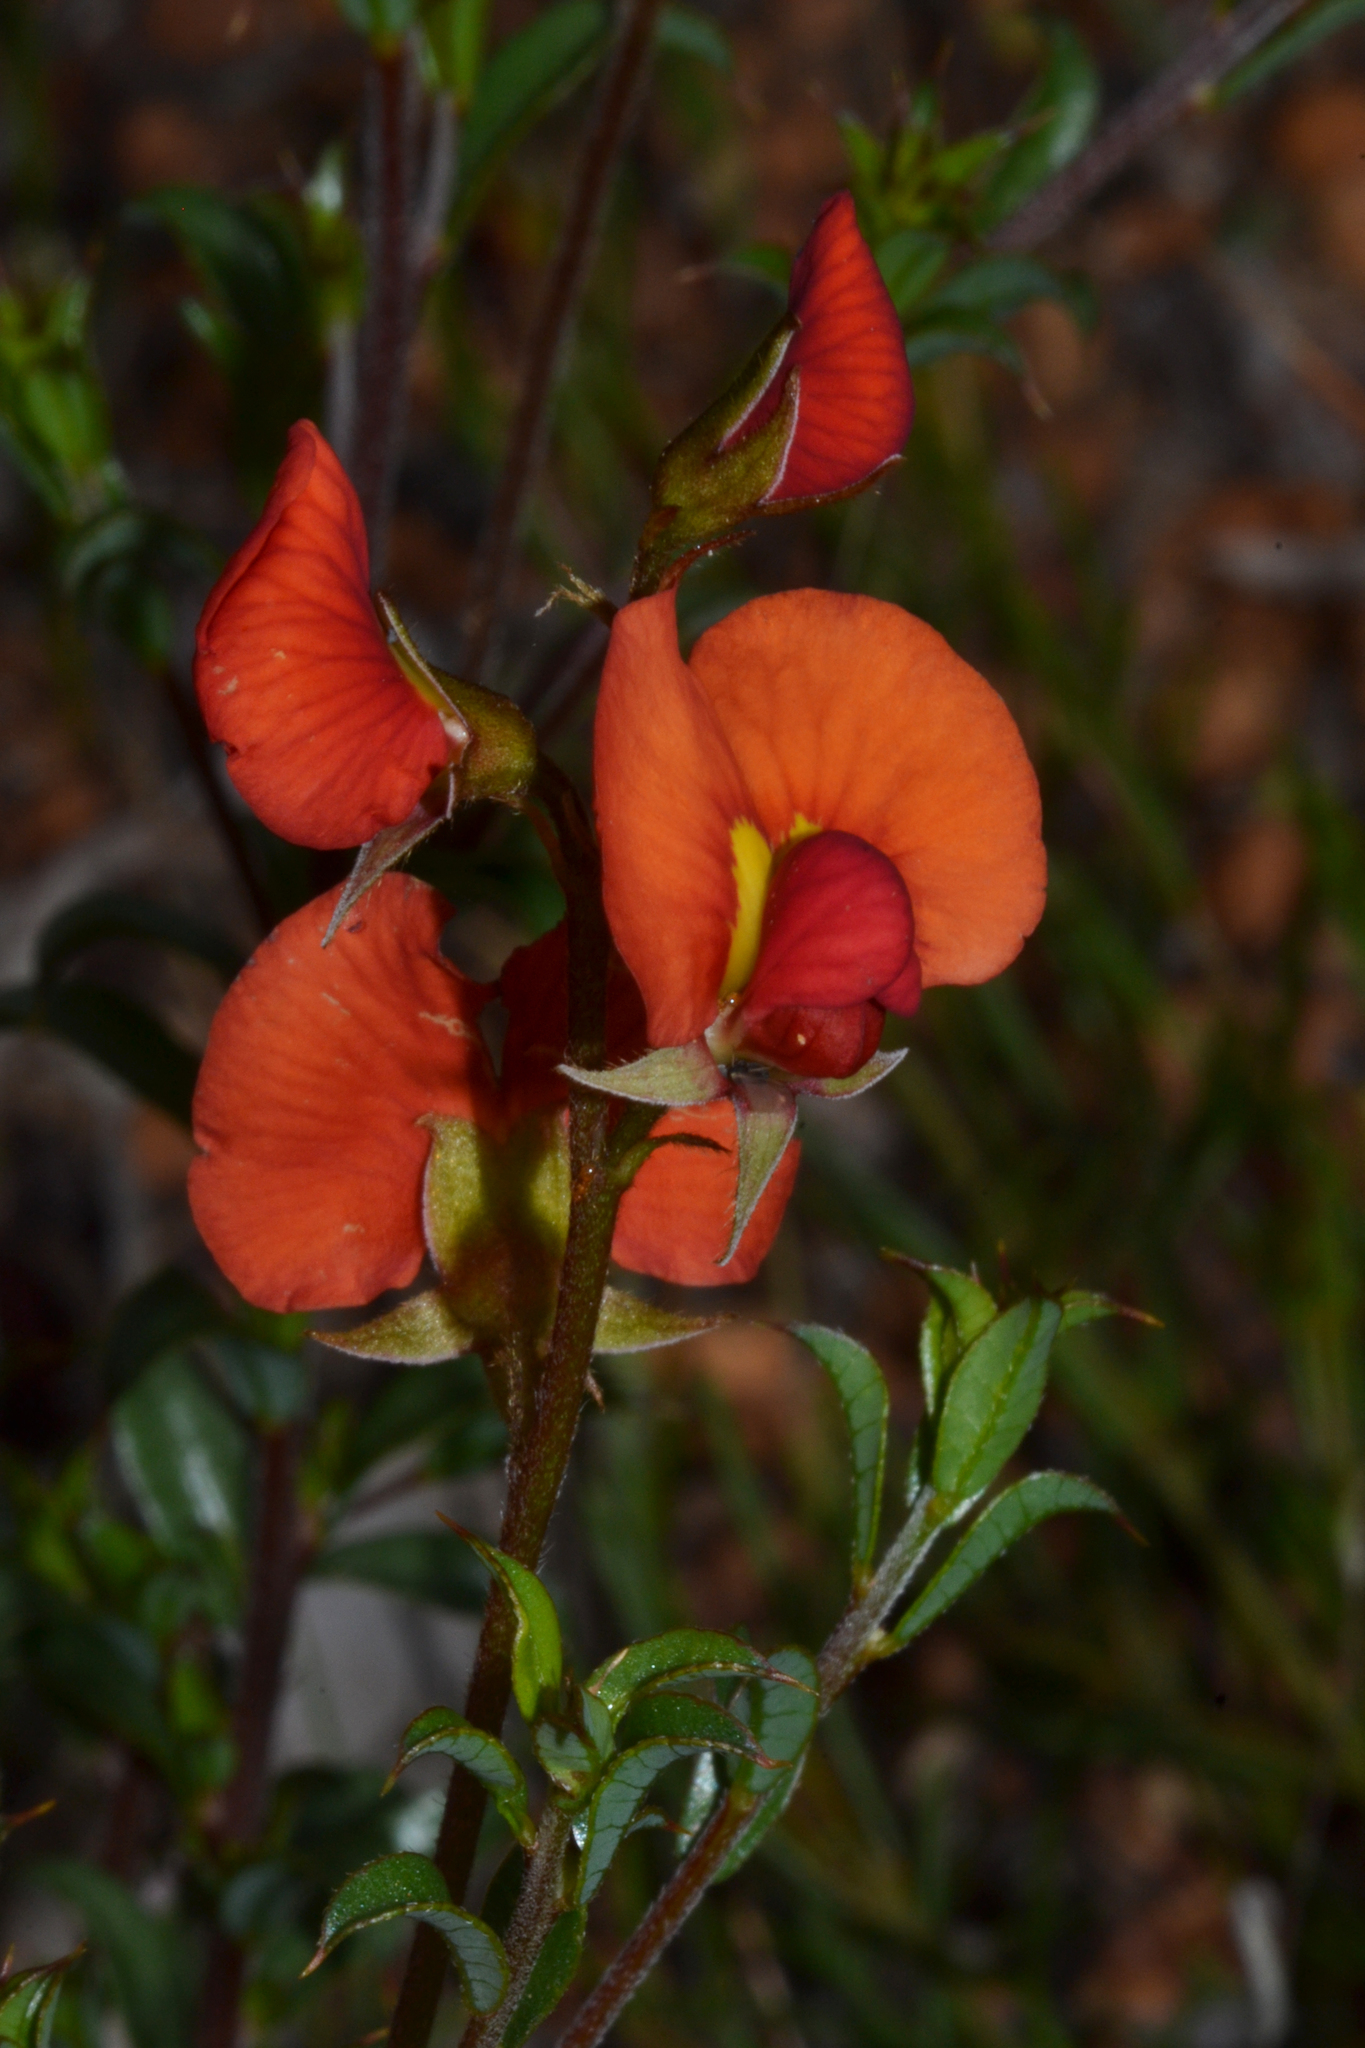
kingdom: Plantae
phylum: Tracheophyta
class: Magnoliopsida
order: Fabales
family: Fabaceae
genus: Chorizema
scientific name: Chorizema dicksonii
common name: Yellow-eyed flame-pea
